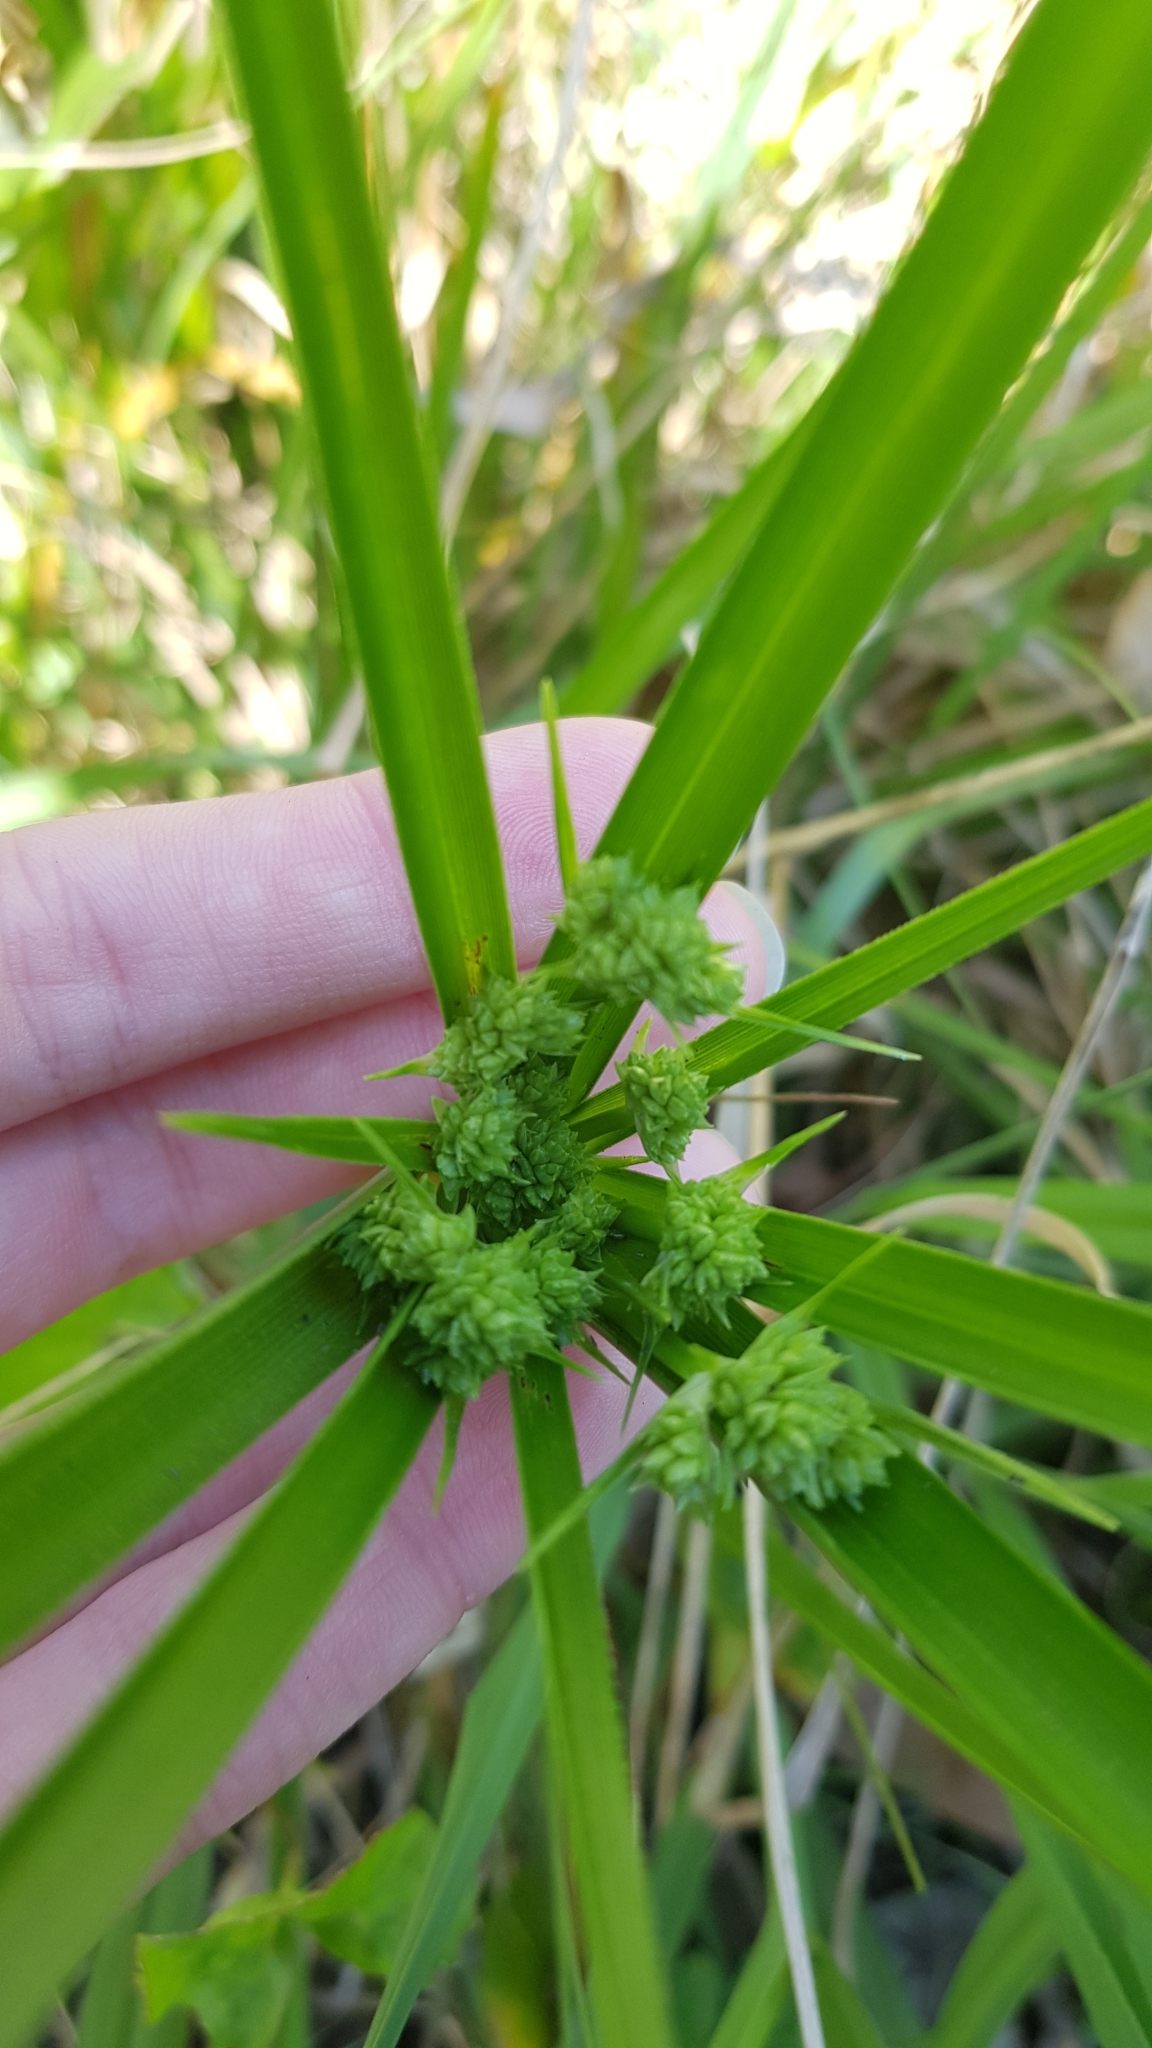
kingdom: Plantae
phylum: Tracheophyta
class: Liliopsida
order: Poales
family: Cyperaceae
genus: Cyperus
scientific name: Cyperus eragrostis
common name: Tall flatsedge
